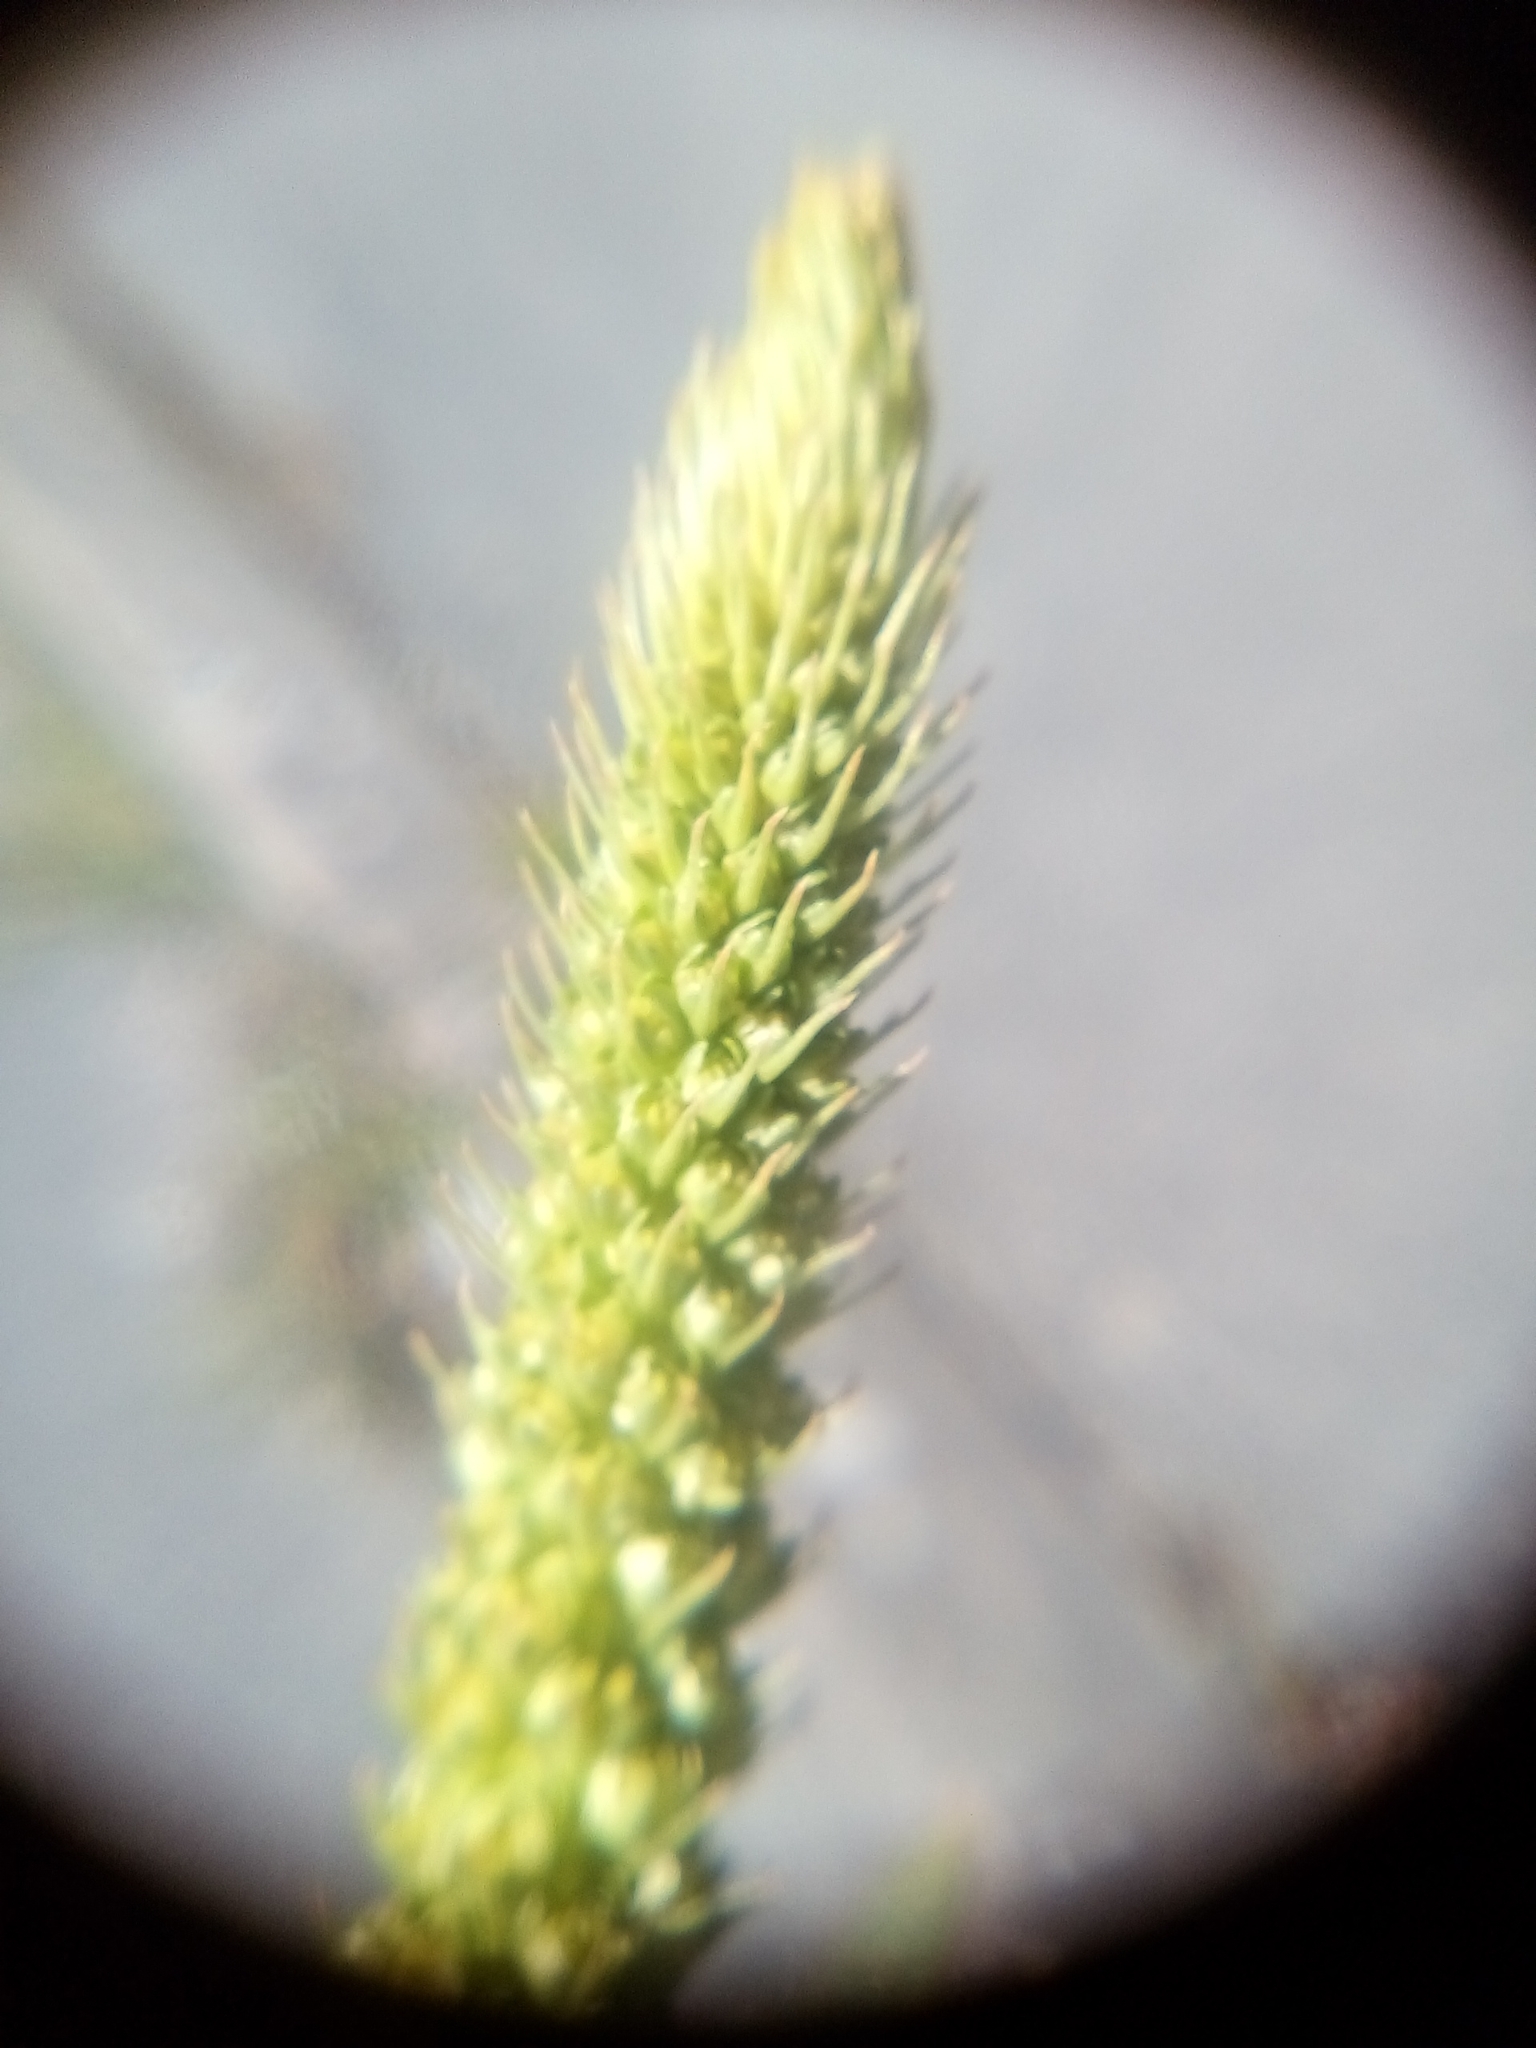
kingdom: Plantae
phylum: Tracheophyta
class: Magnoliopsida
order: Brassicales
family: Resedaceae
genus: Reseda
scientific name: Reseda luteola
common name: Weld
